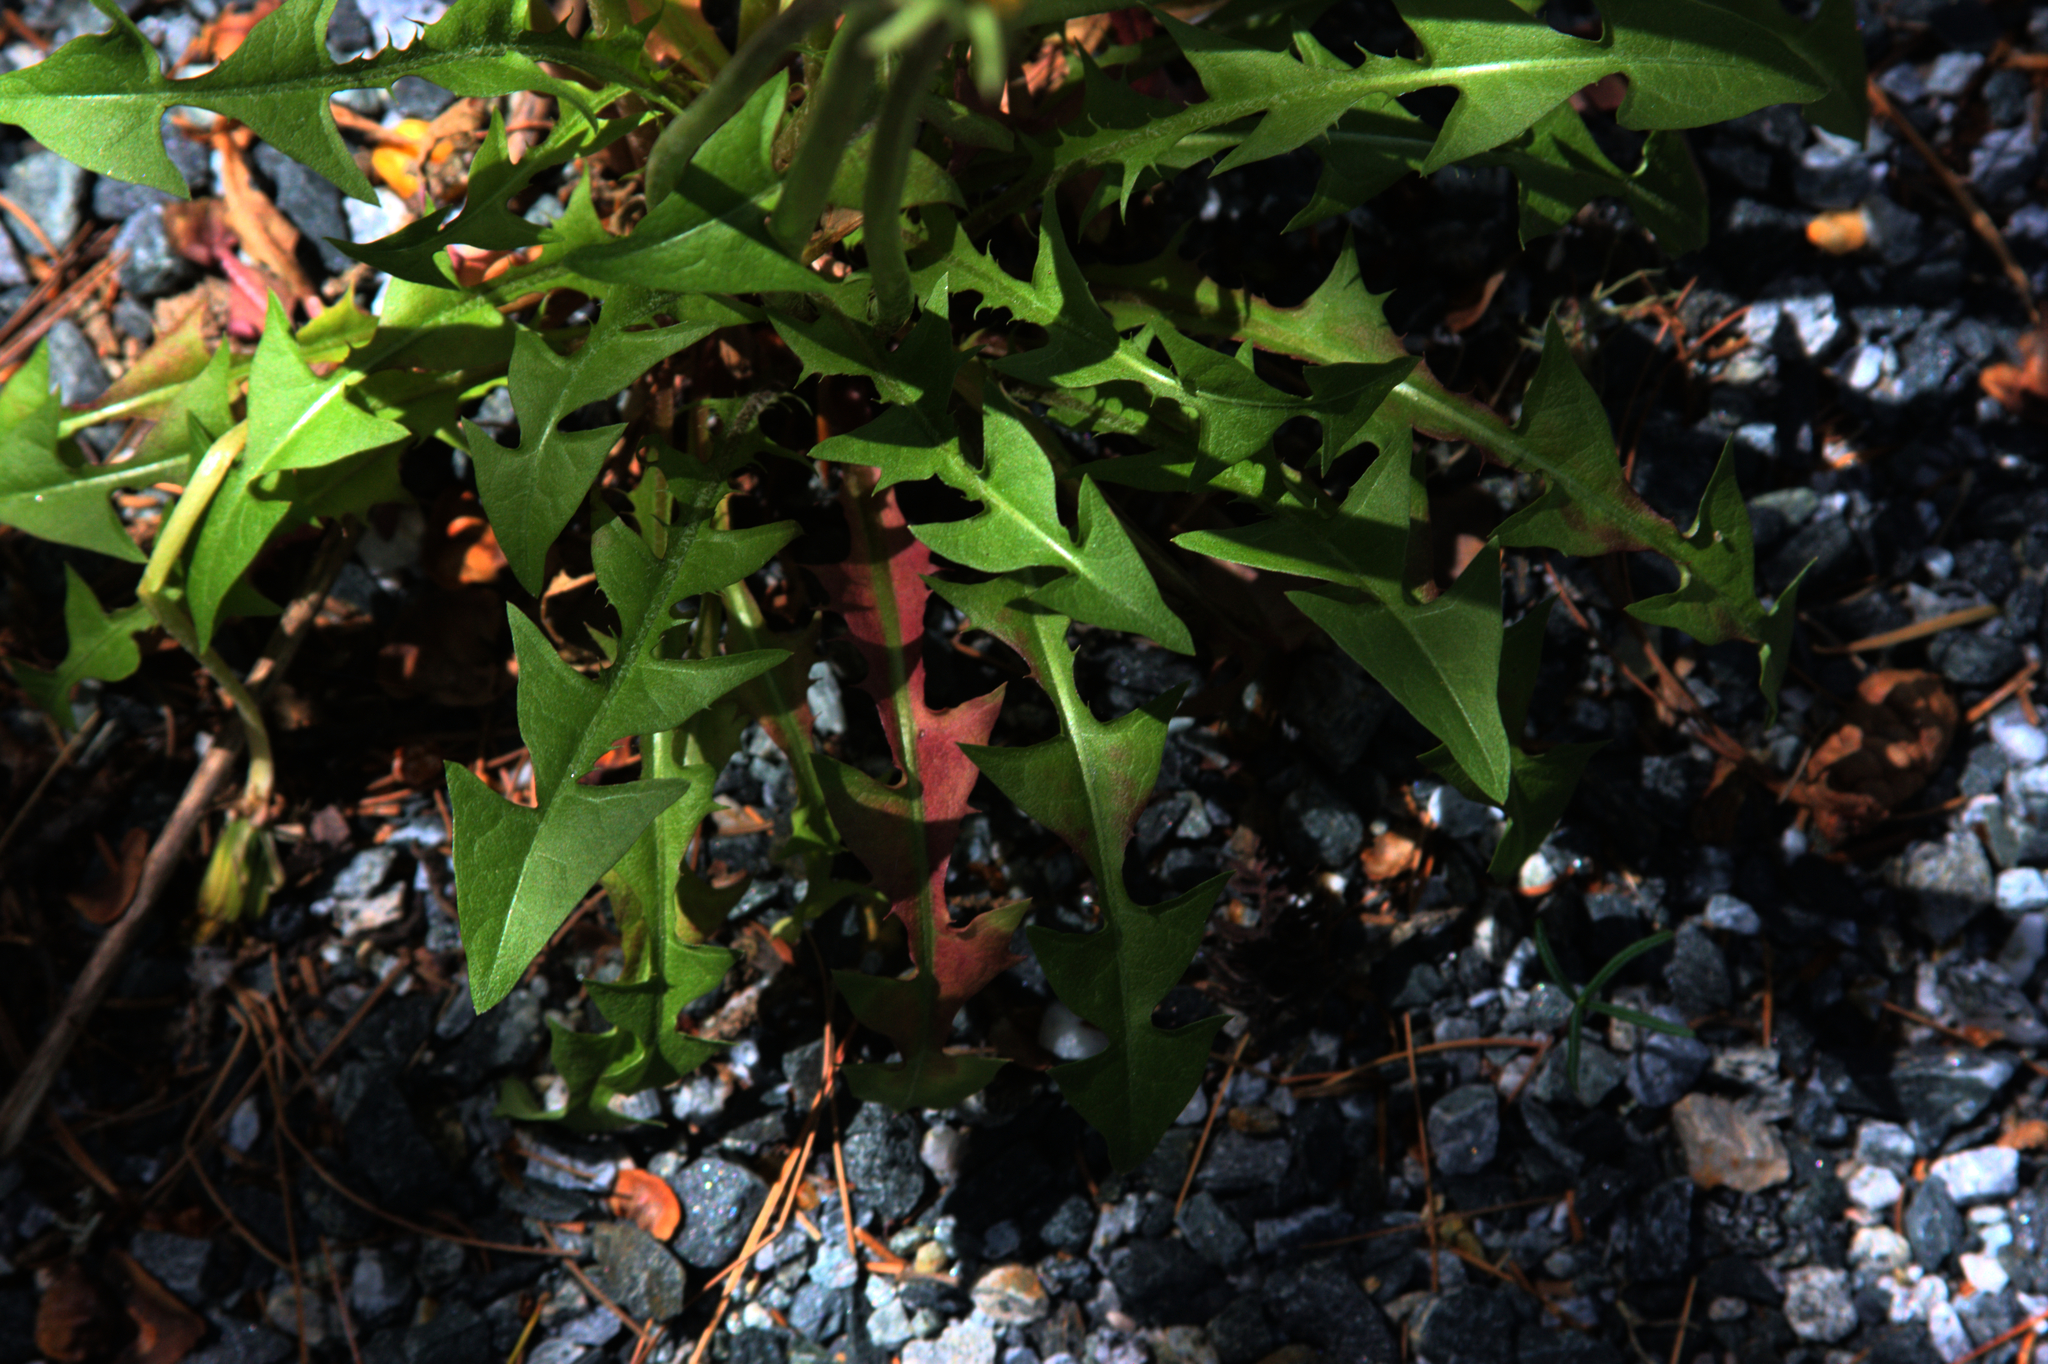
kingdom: Plantae
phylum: Tracheophyta
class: Magnoliopsida
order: Asterales
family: Asteraceae
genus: Taraxacum
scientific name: Taraxacum officinale
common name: Common dandelion
